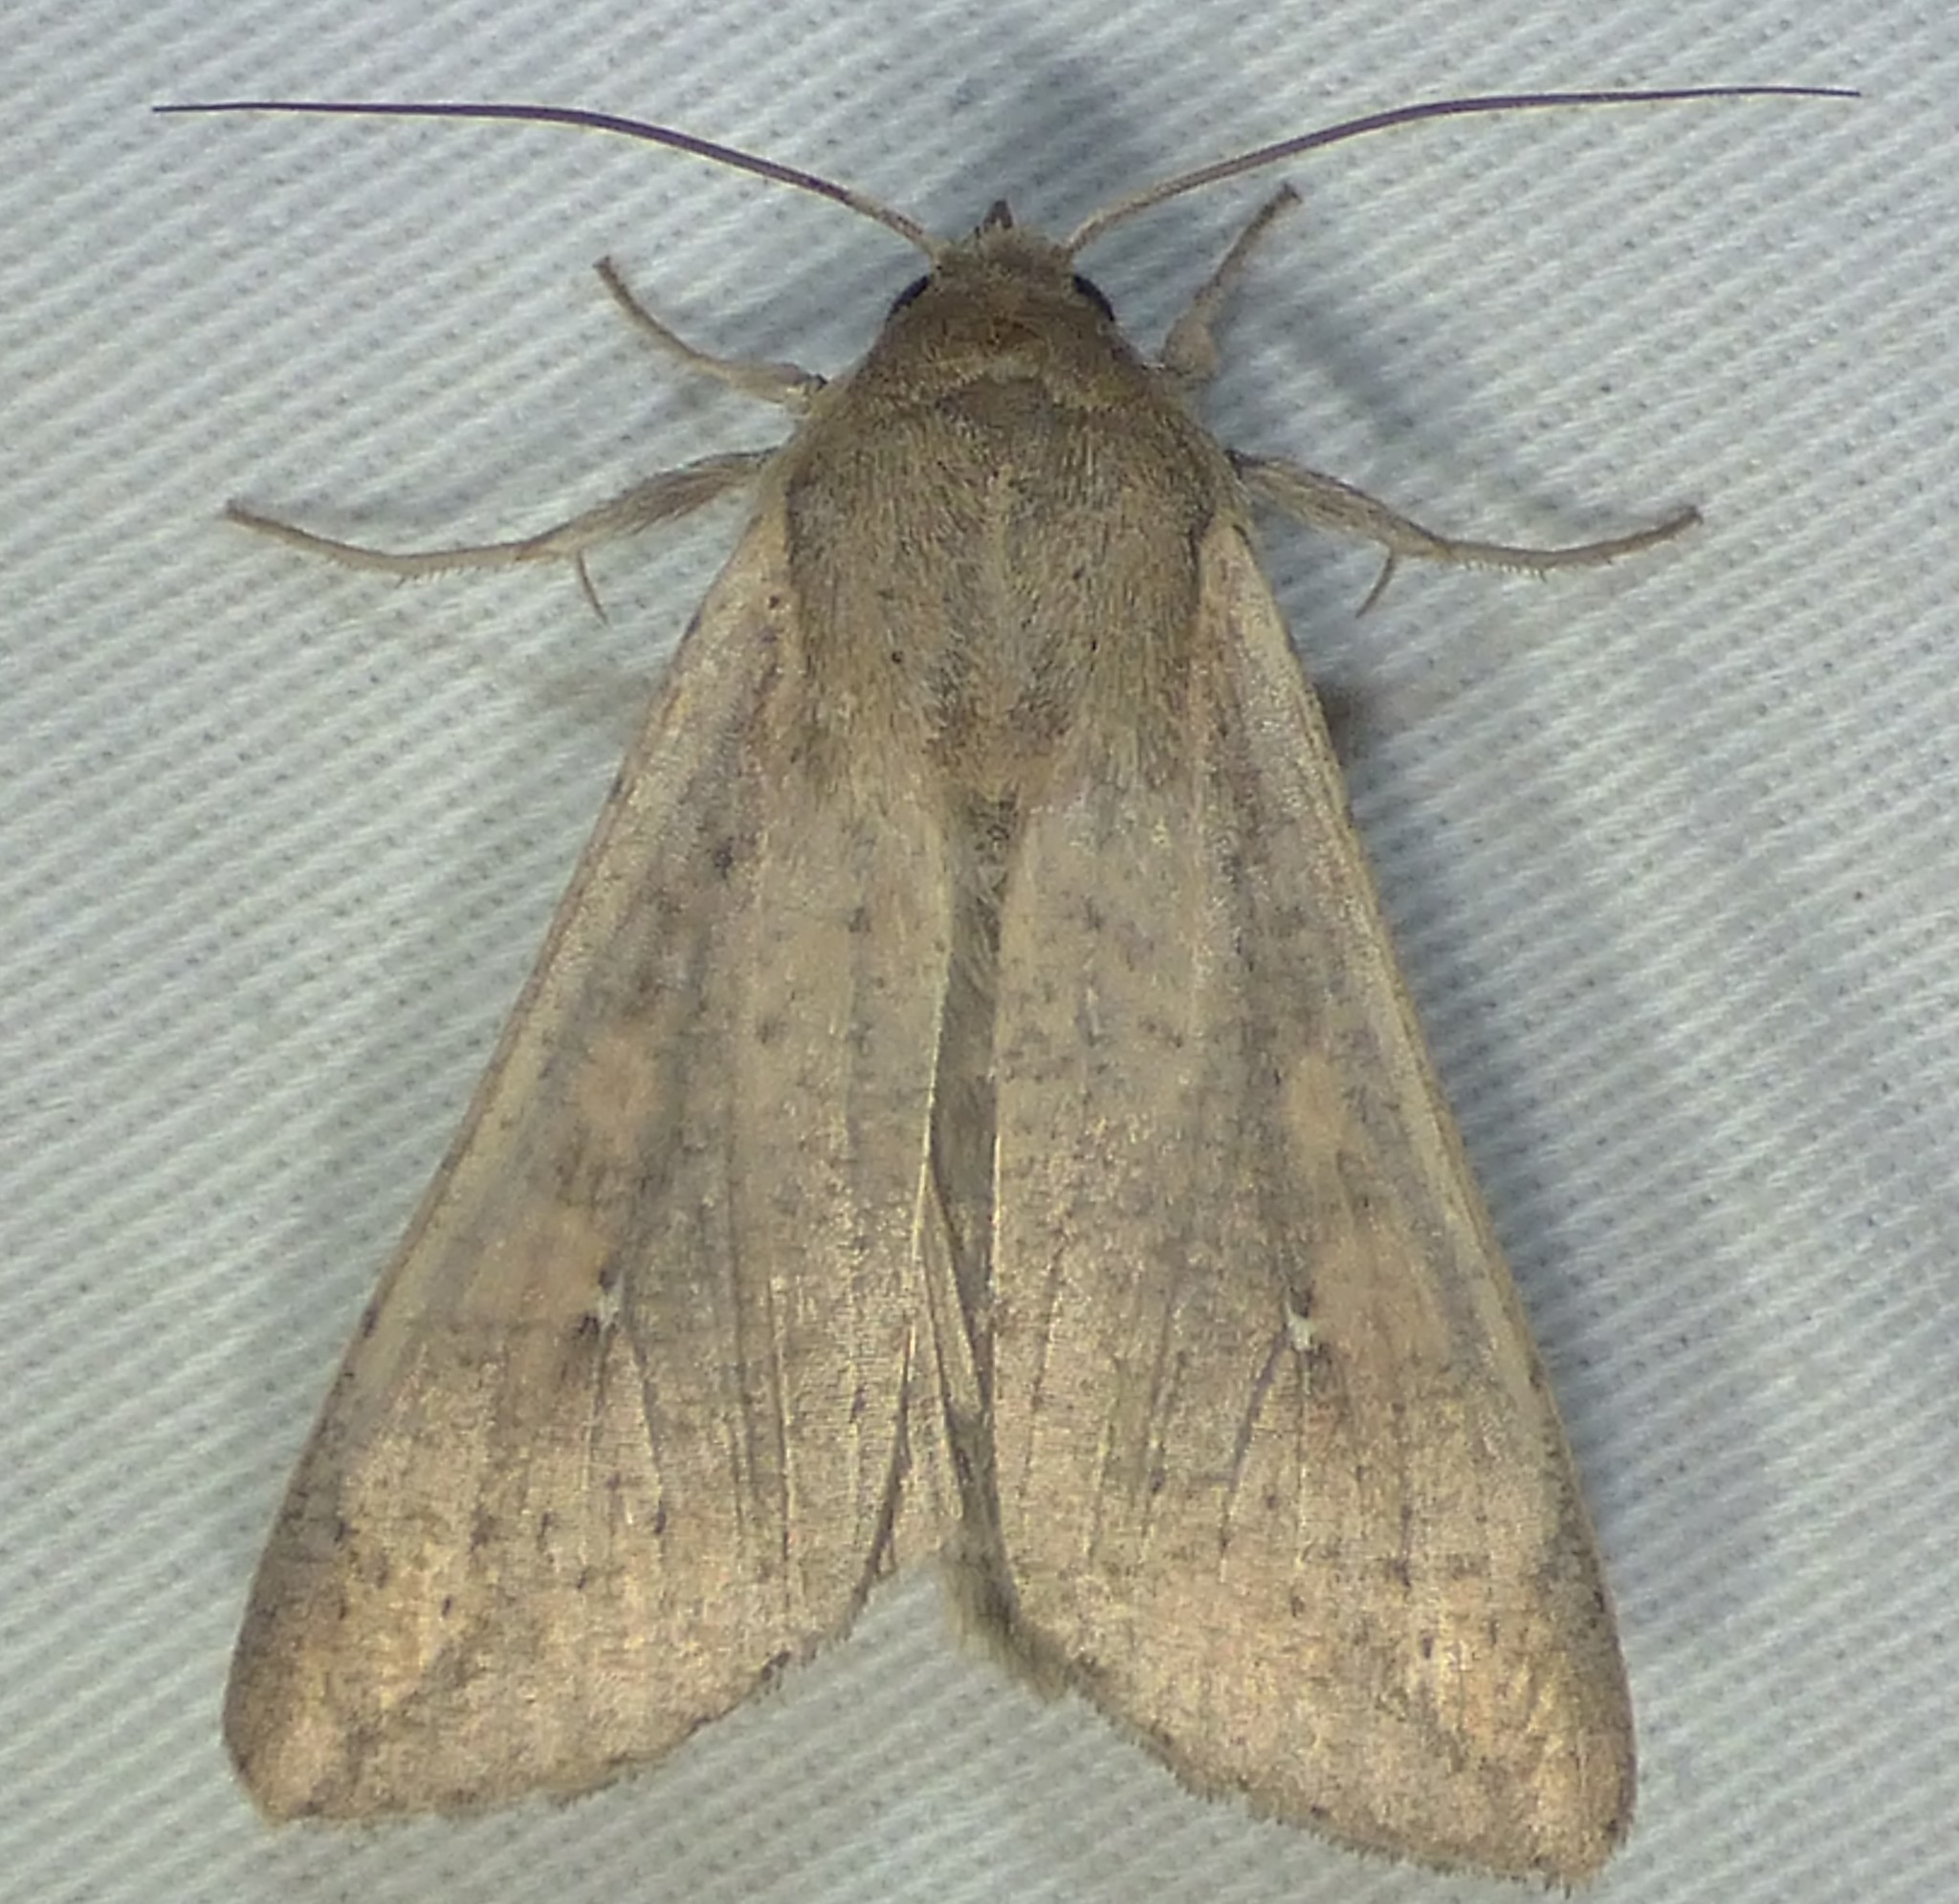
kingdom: Animalia
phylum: Arthropoda
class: Insecta
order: Lepidoptera
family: Noctuidae
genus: Mythimna
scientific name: Mythimna unipuncta
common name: White-speck
